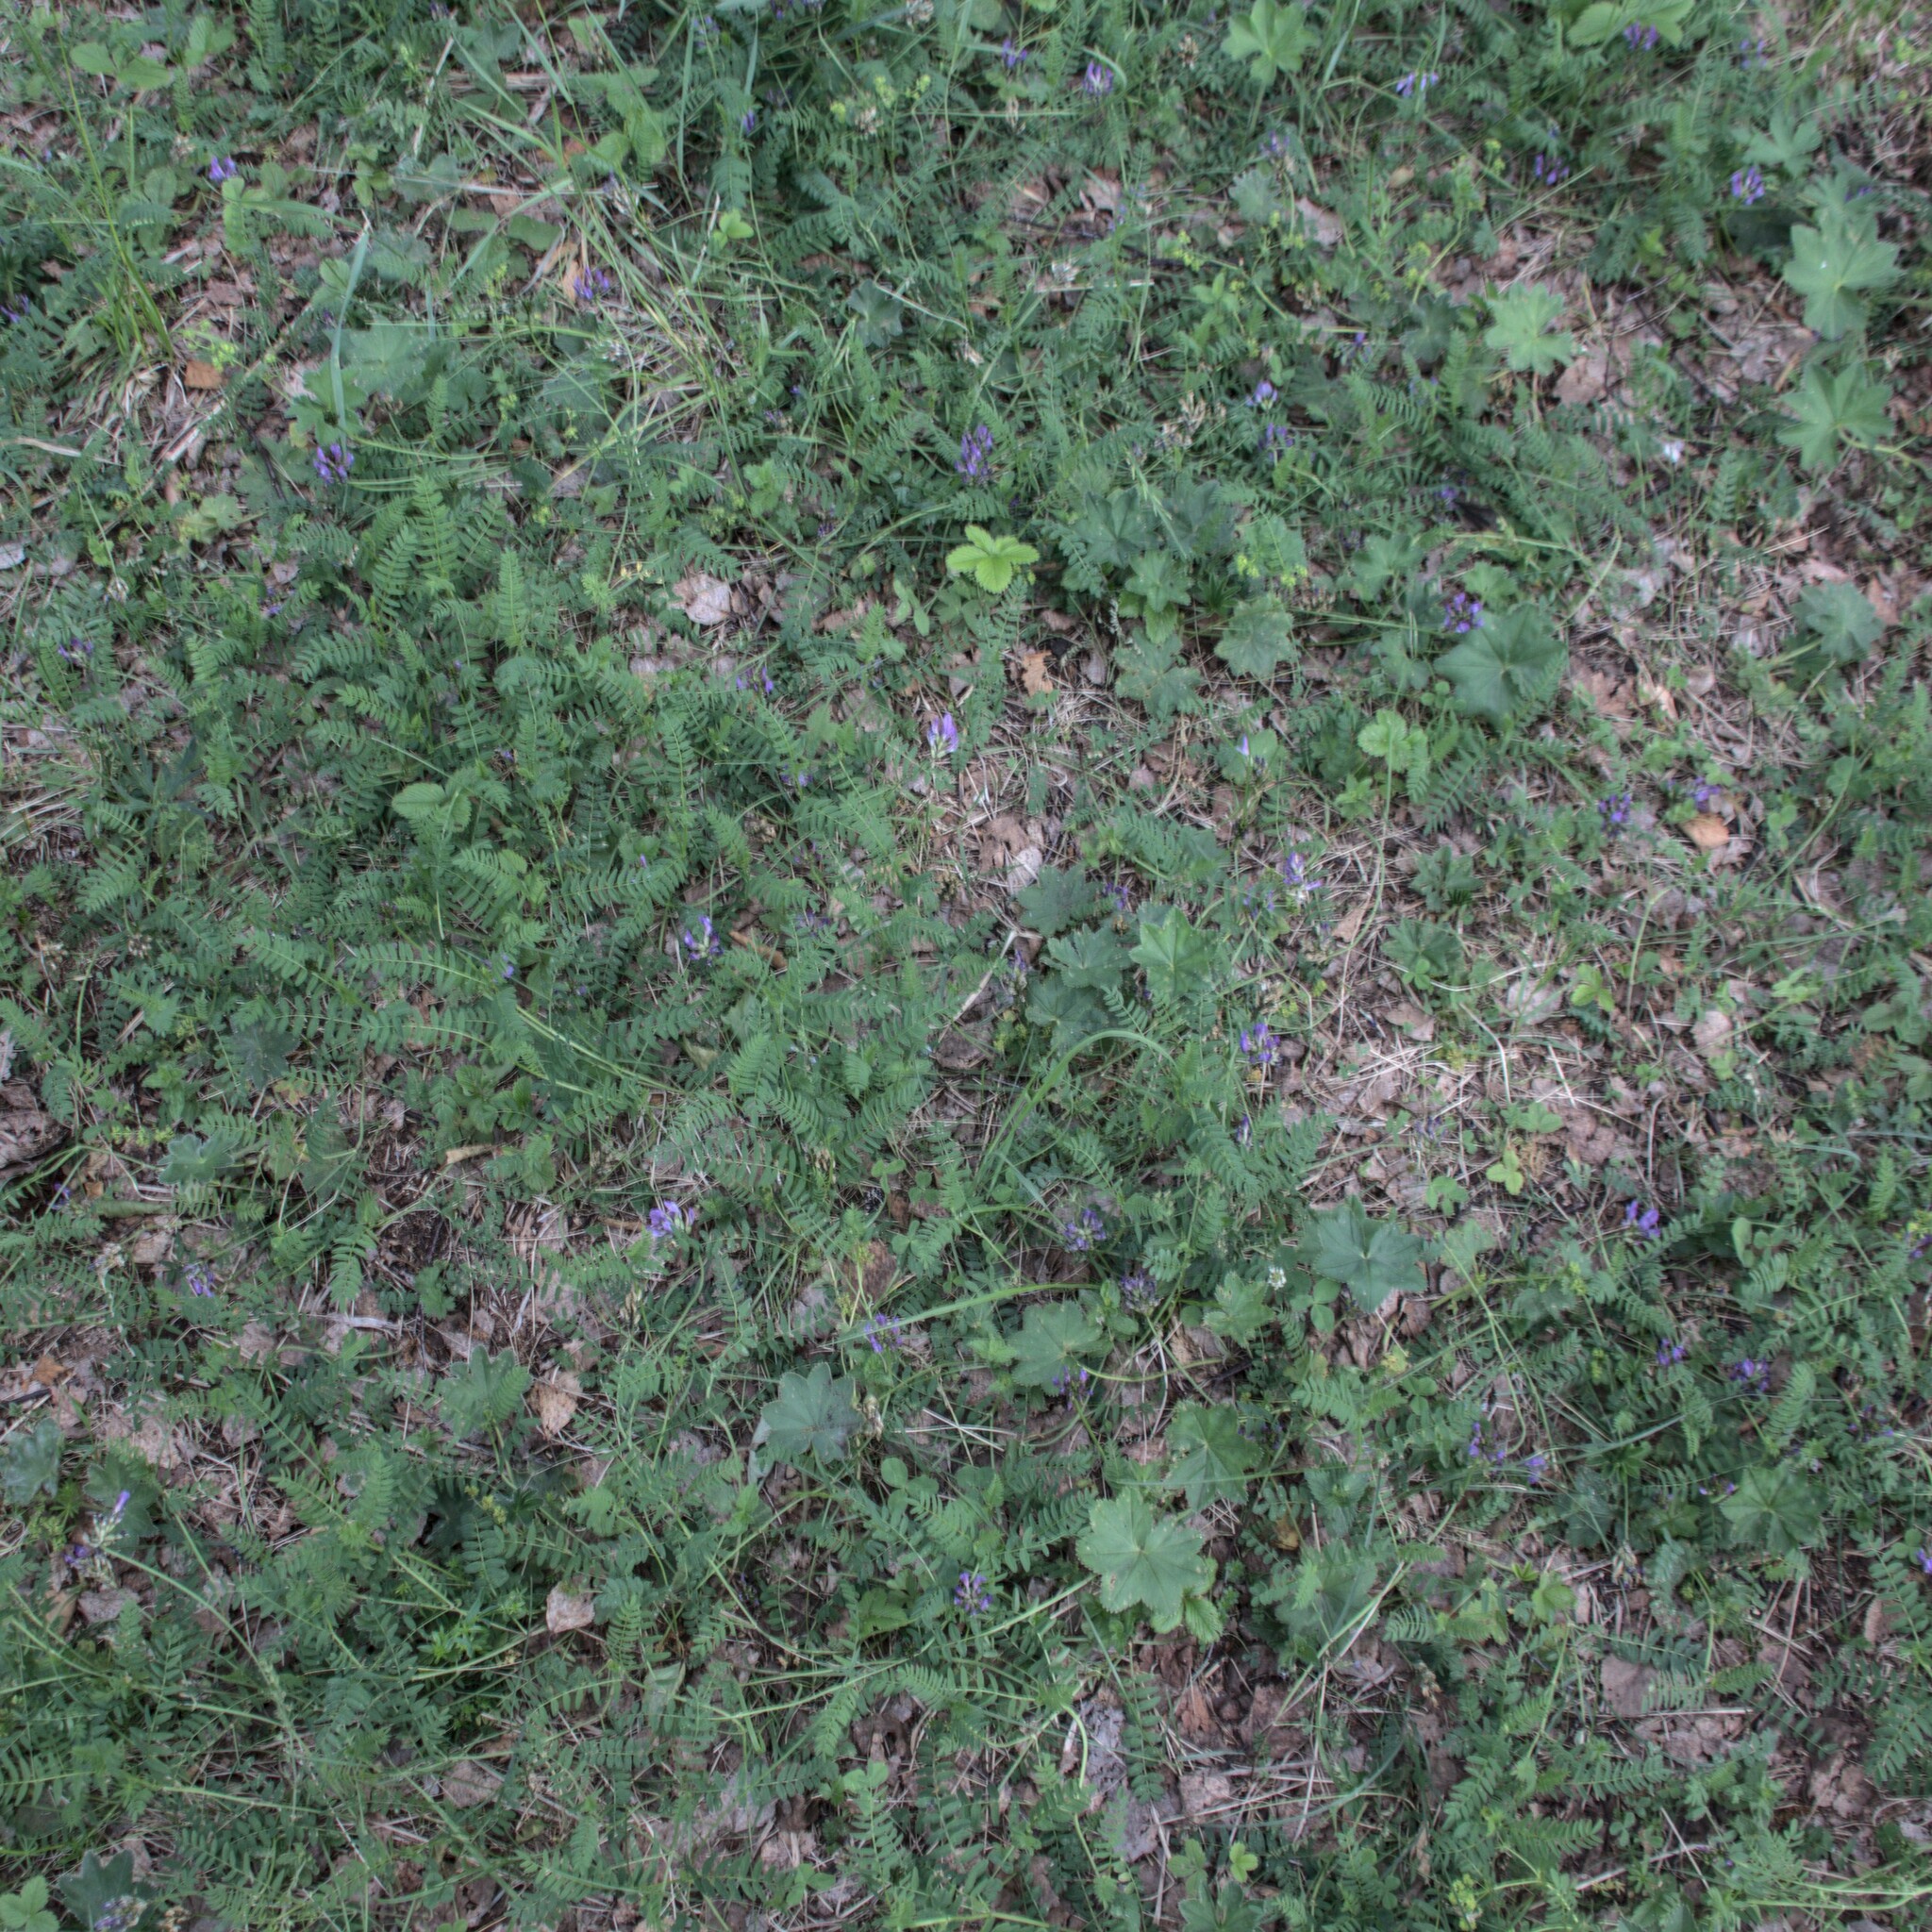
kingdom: Plantae
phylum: Tracheophyta
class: Magnoliopsida
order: Fabales
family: Fabaceae
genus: Astragalus
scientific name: Astragalus danicus
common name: Purple milk-vetch
